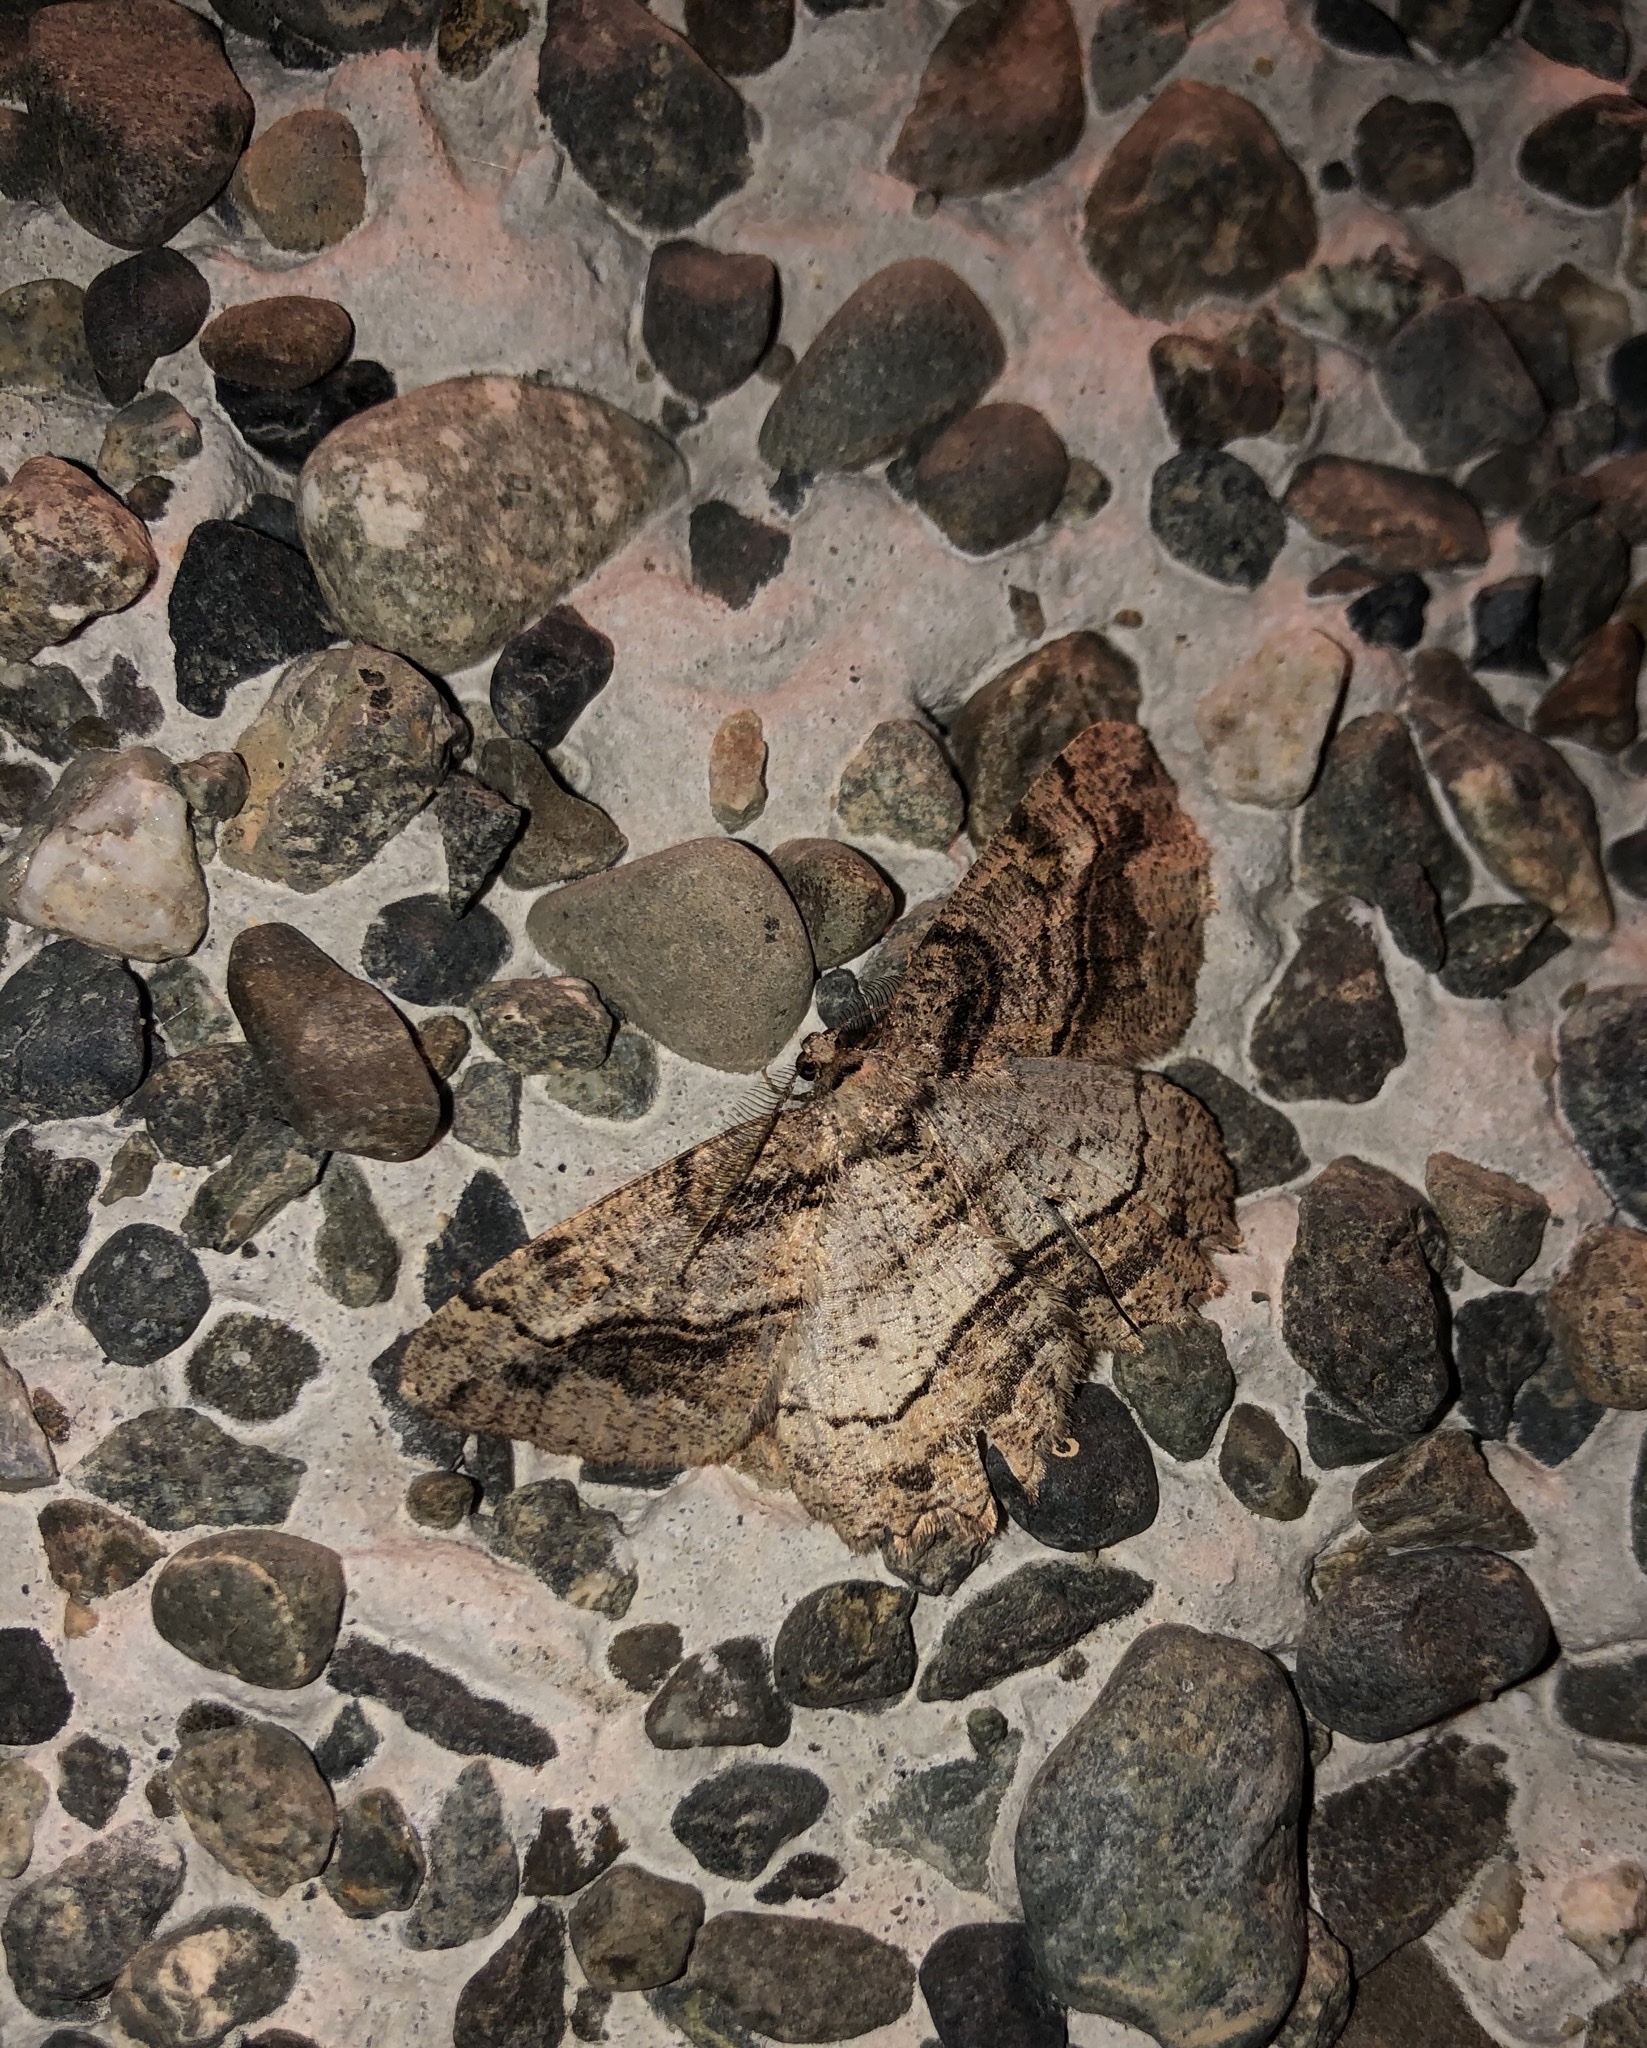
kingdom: Animalia
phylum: Arthropoda
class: Insecta
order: Lepidoptera
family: Geometridae
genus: Neoalcis
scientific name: Neoalcis californiaria
